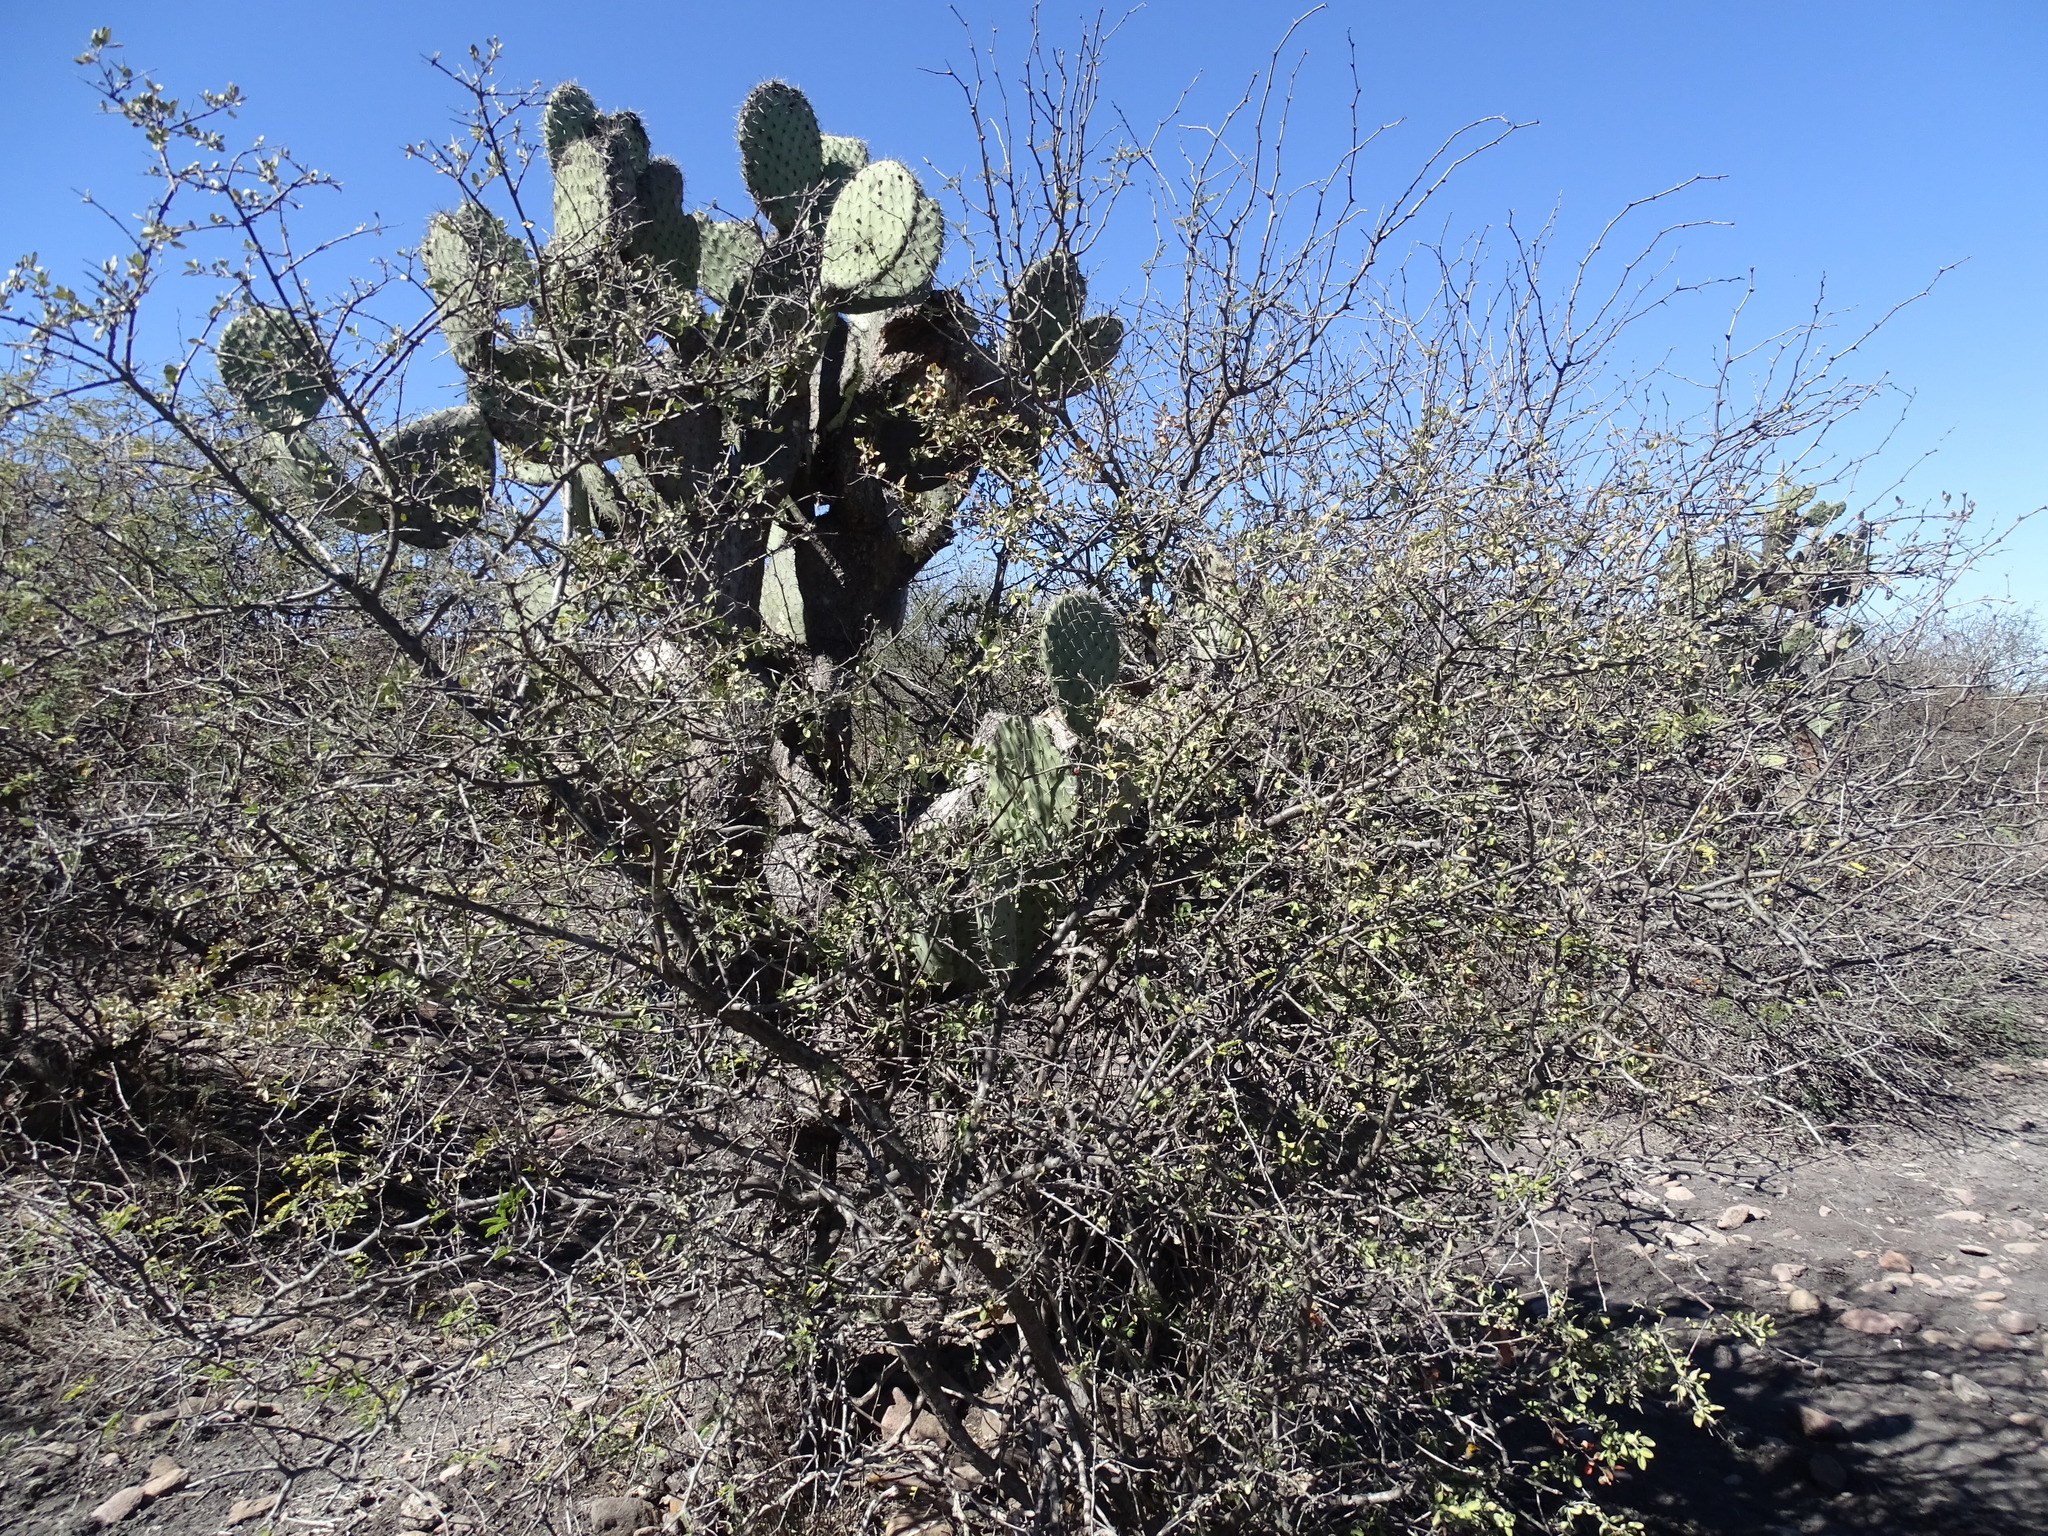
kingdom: Plantae
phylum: Tracheophyta
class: Magnoliopsida
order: Lamiales
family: Verbenaceae
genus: Citharexylum
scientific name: Citharexylum racemosum
